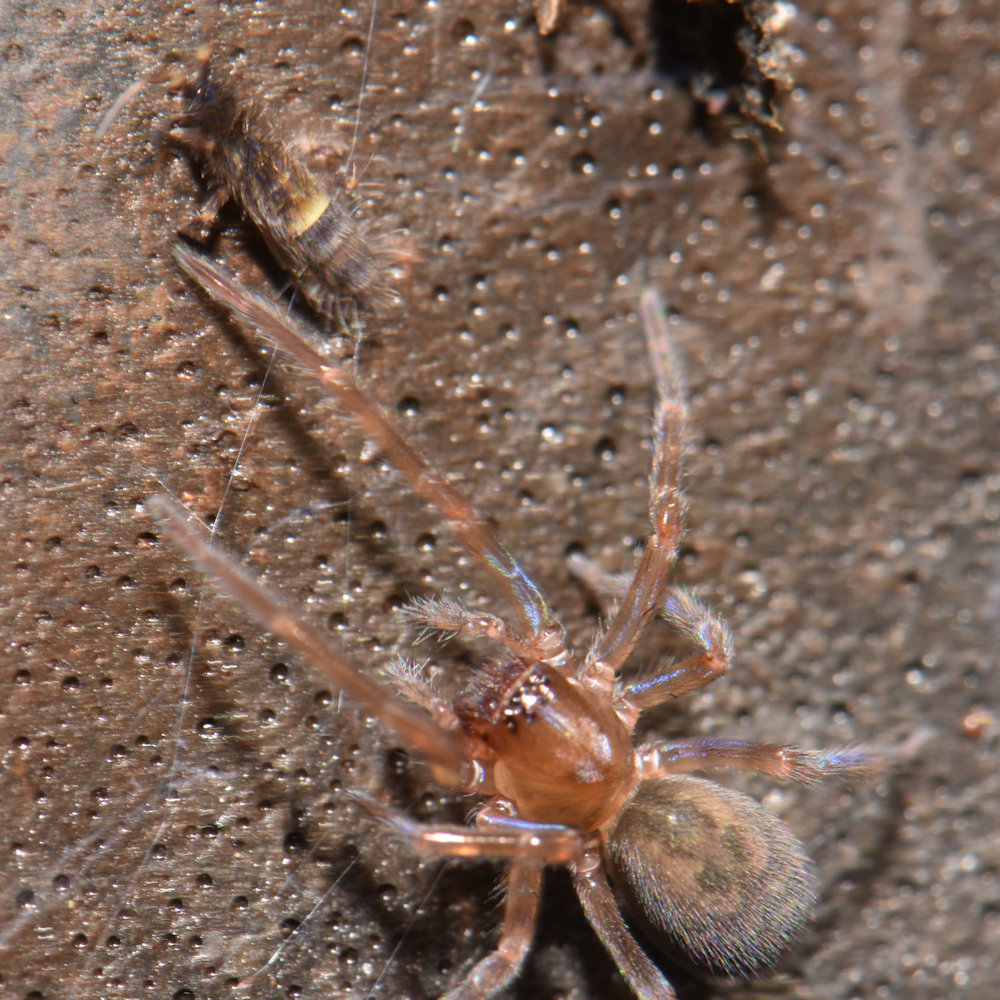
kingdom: Animalia
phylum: Arthropoda
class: Arachnida
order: Araneae
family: Amaurobiidae
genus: Amaurobius
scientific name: Amaurobius ferox
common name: Black laceweaver
